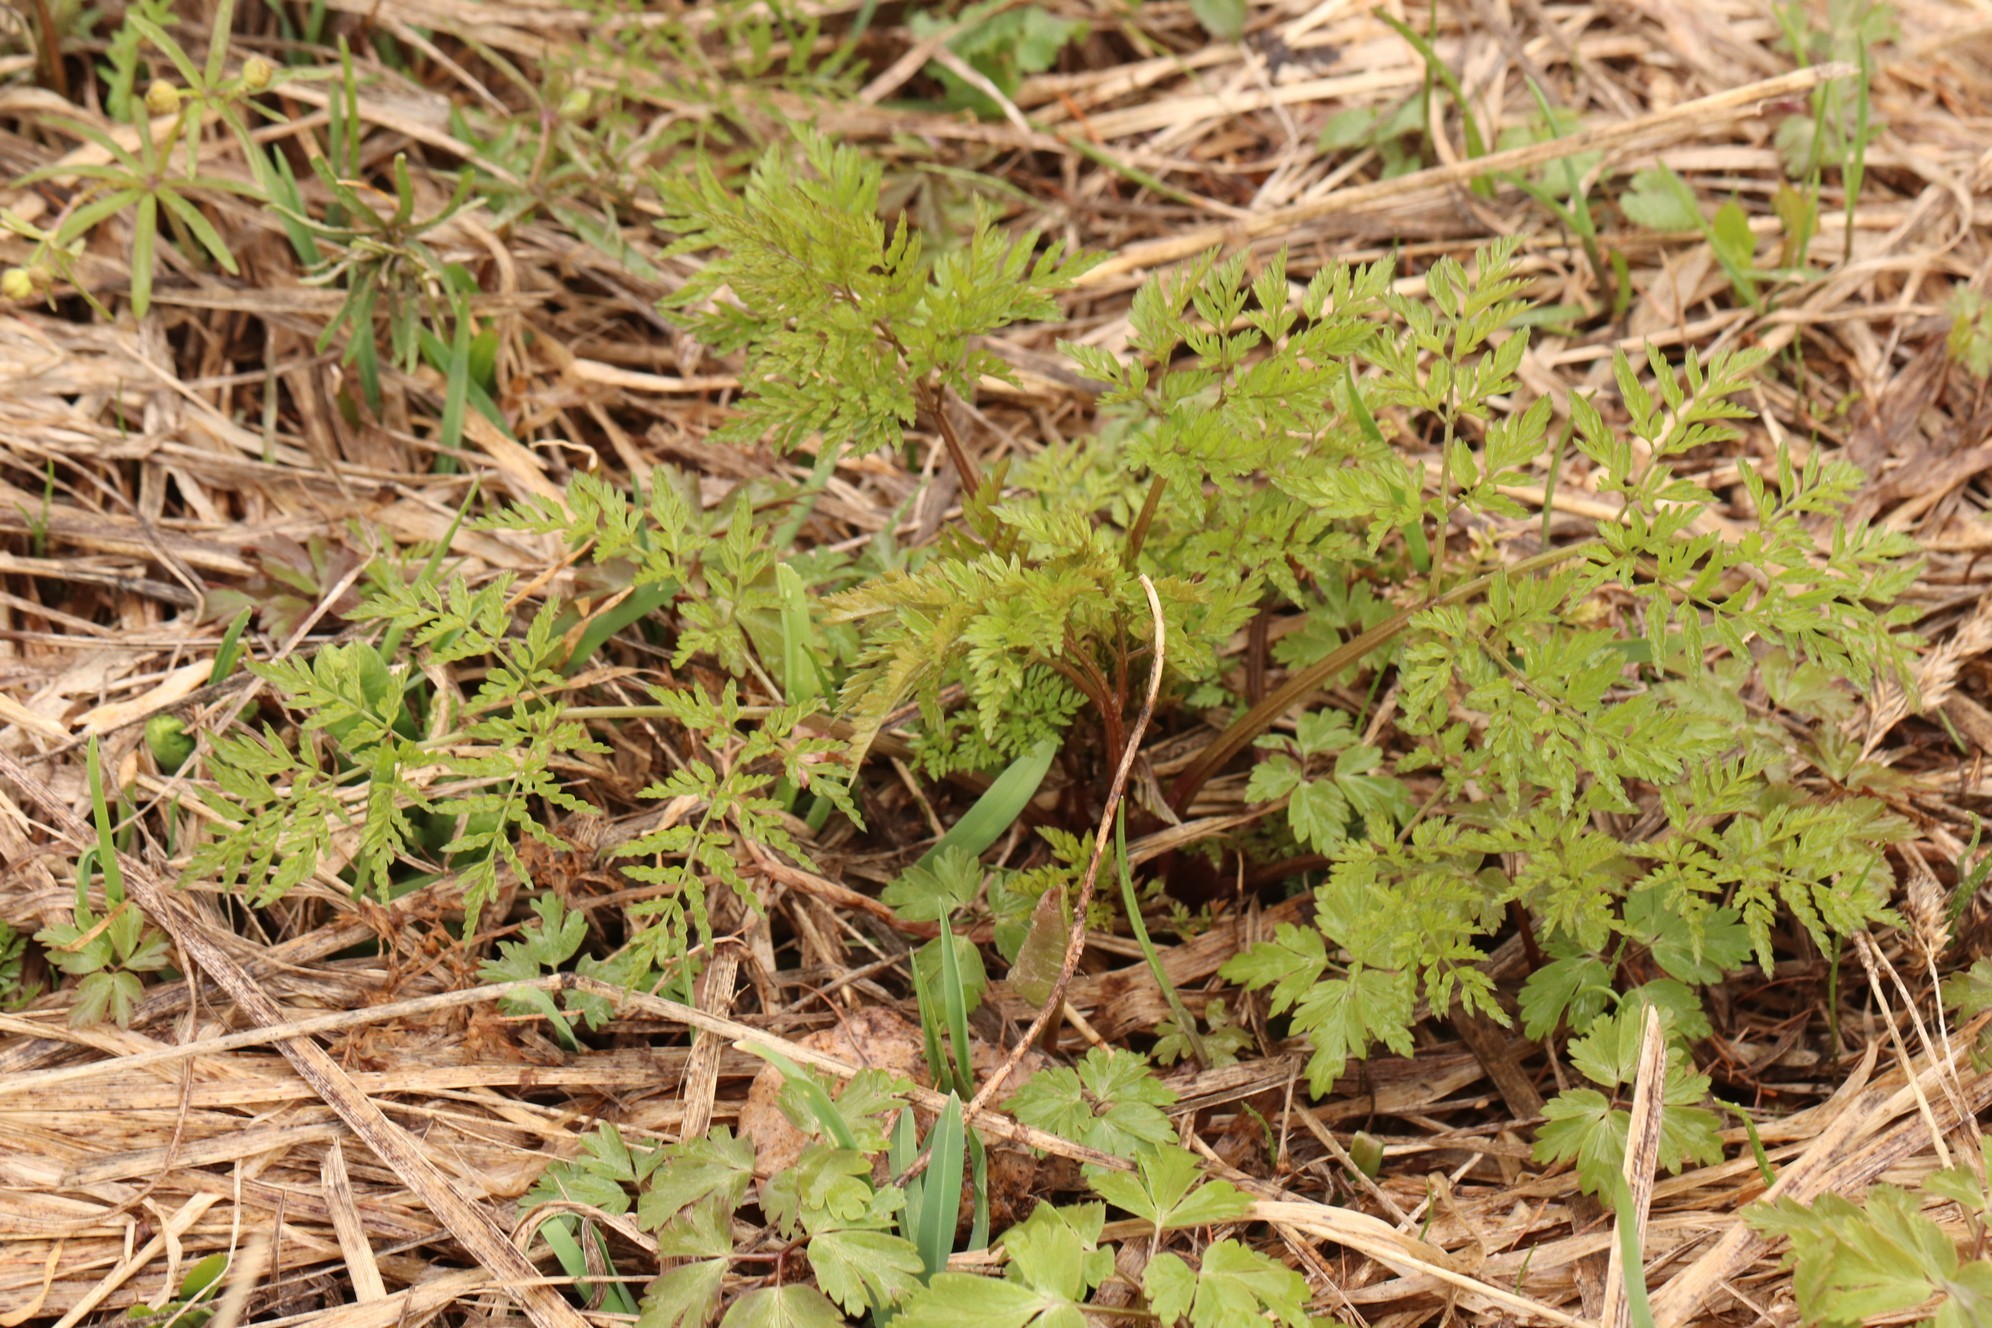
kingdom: Plantae
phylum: Tracheophyta
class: Magnoliopsida
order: Apiales
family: Apiaceae
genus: Anthriscus
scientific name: Anthriscus sylvestris
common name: Cow parsley
